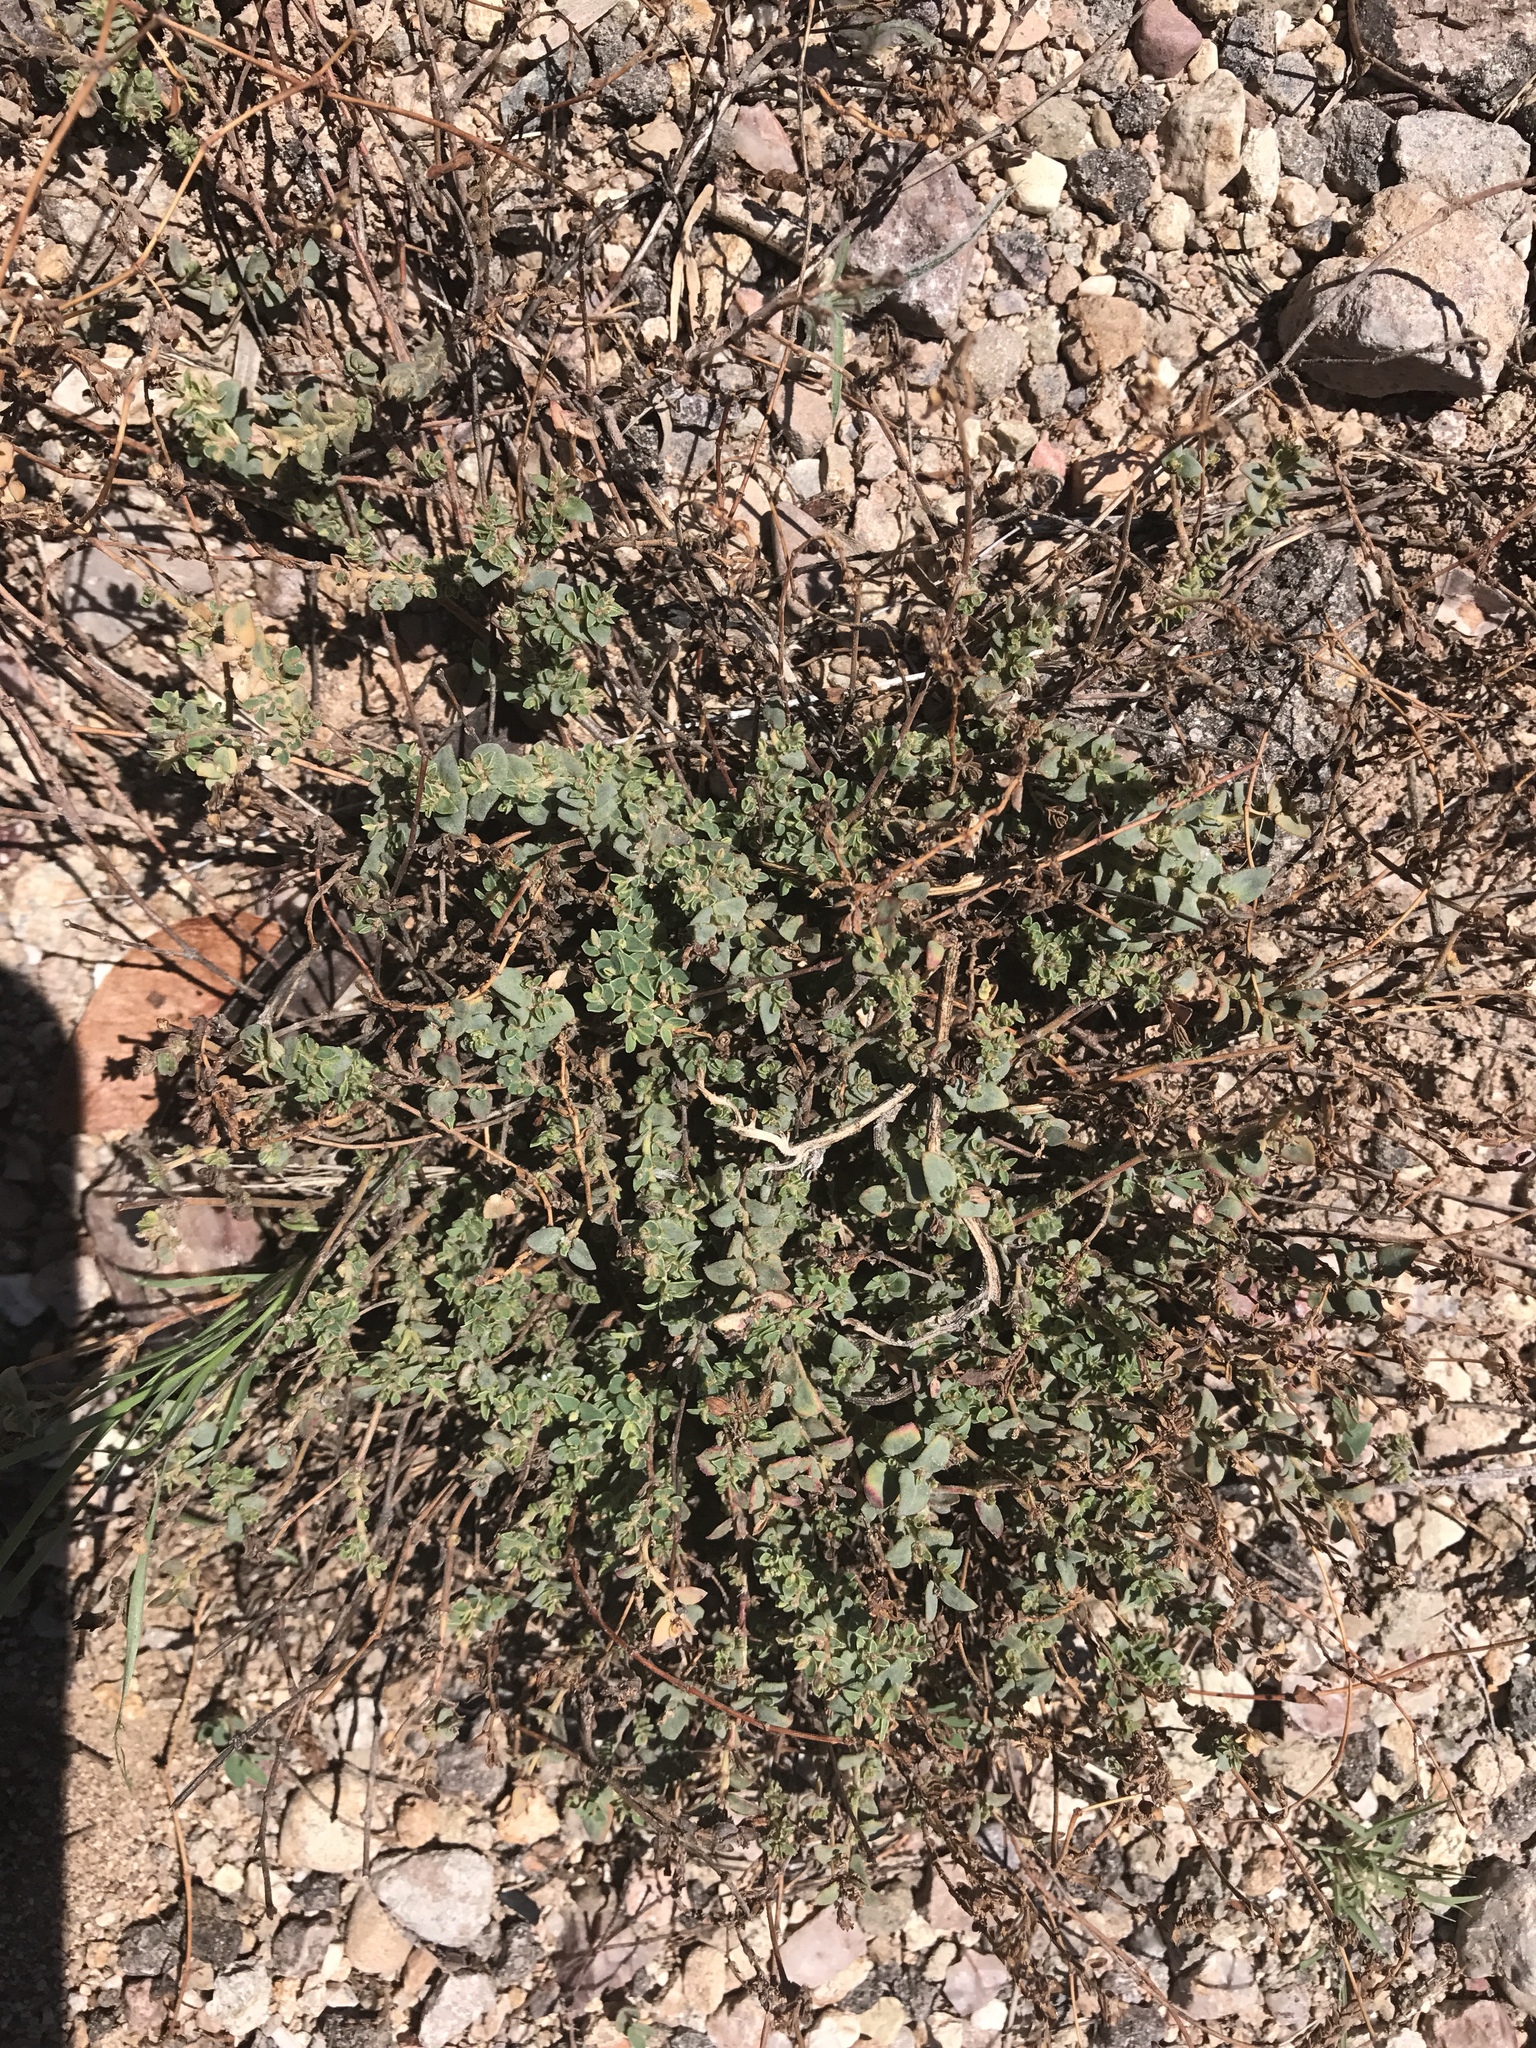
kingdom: Plantae
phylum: Tracheophyta
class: Magnoliopsida
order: Malpighiales
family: Euphorbiaceae
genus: Euphorbia
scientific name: Euphorbia capitellata
